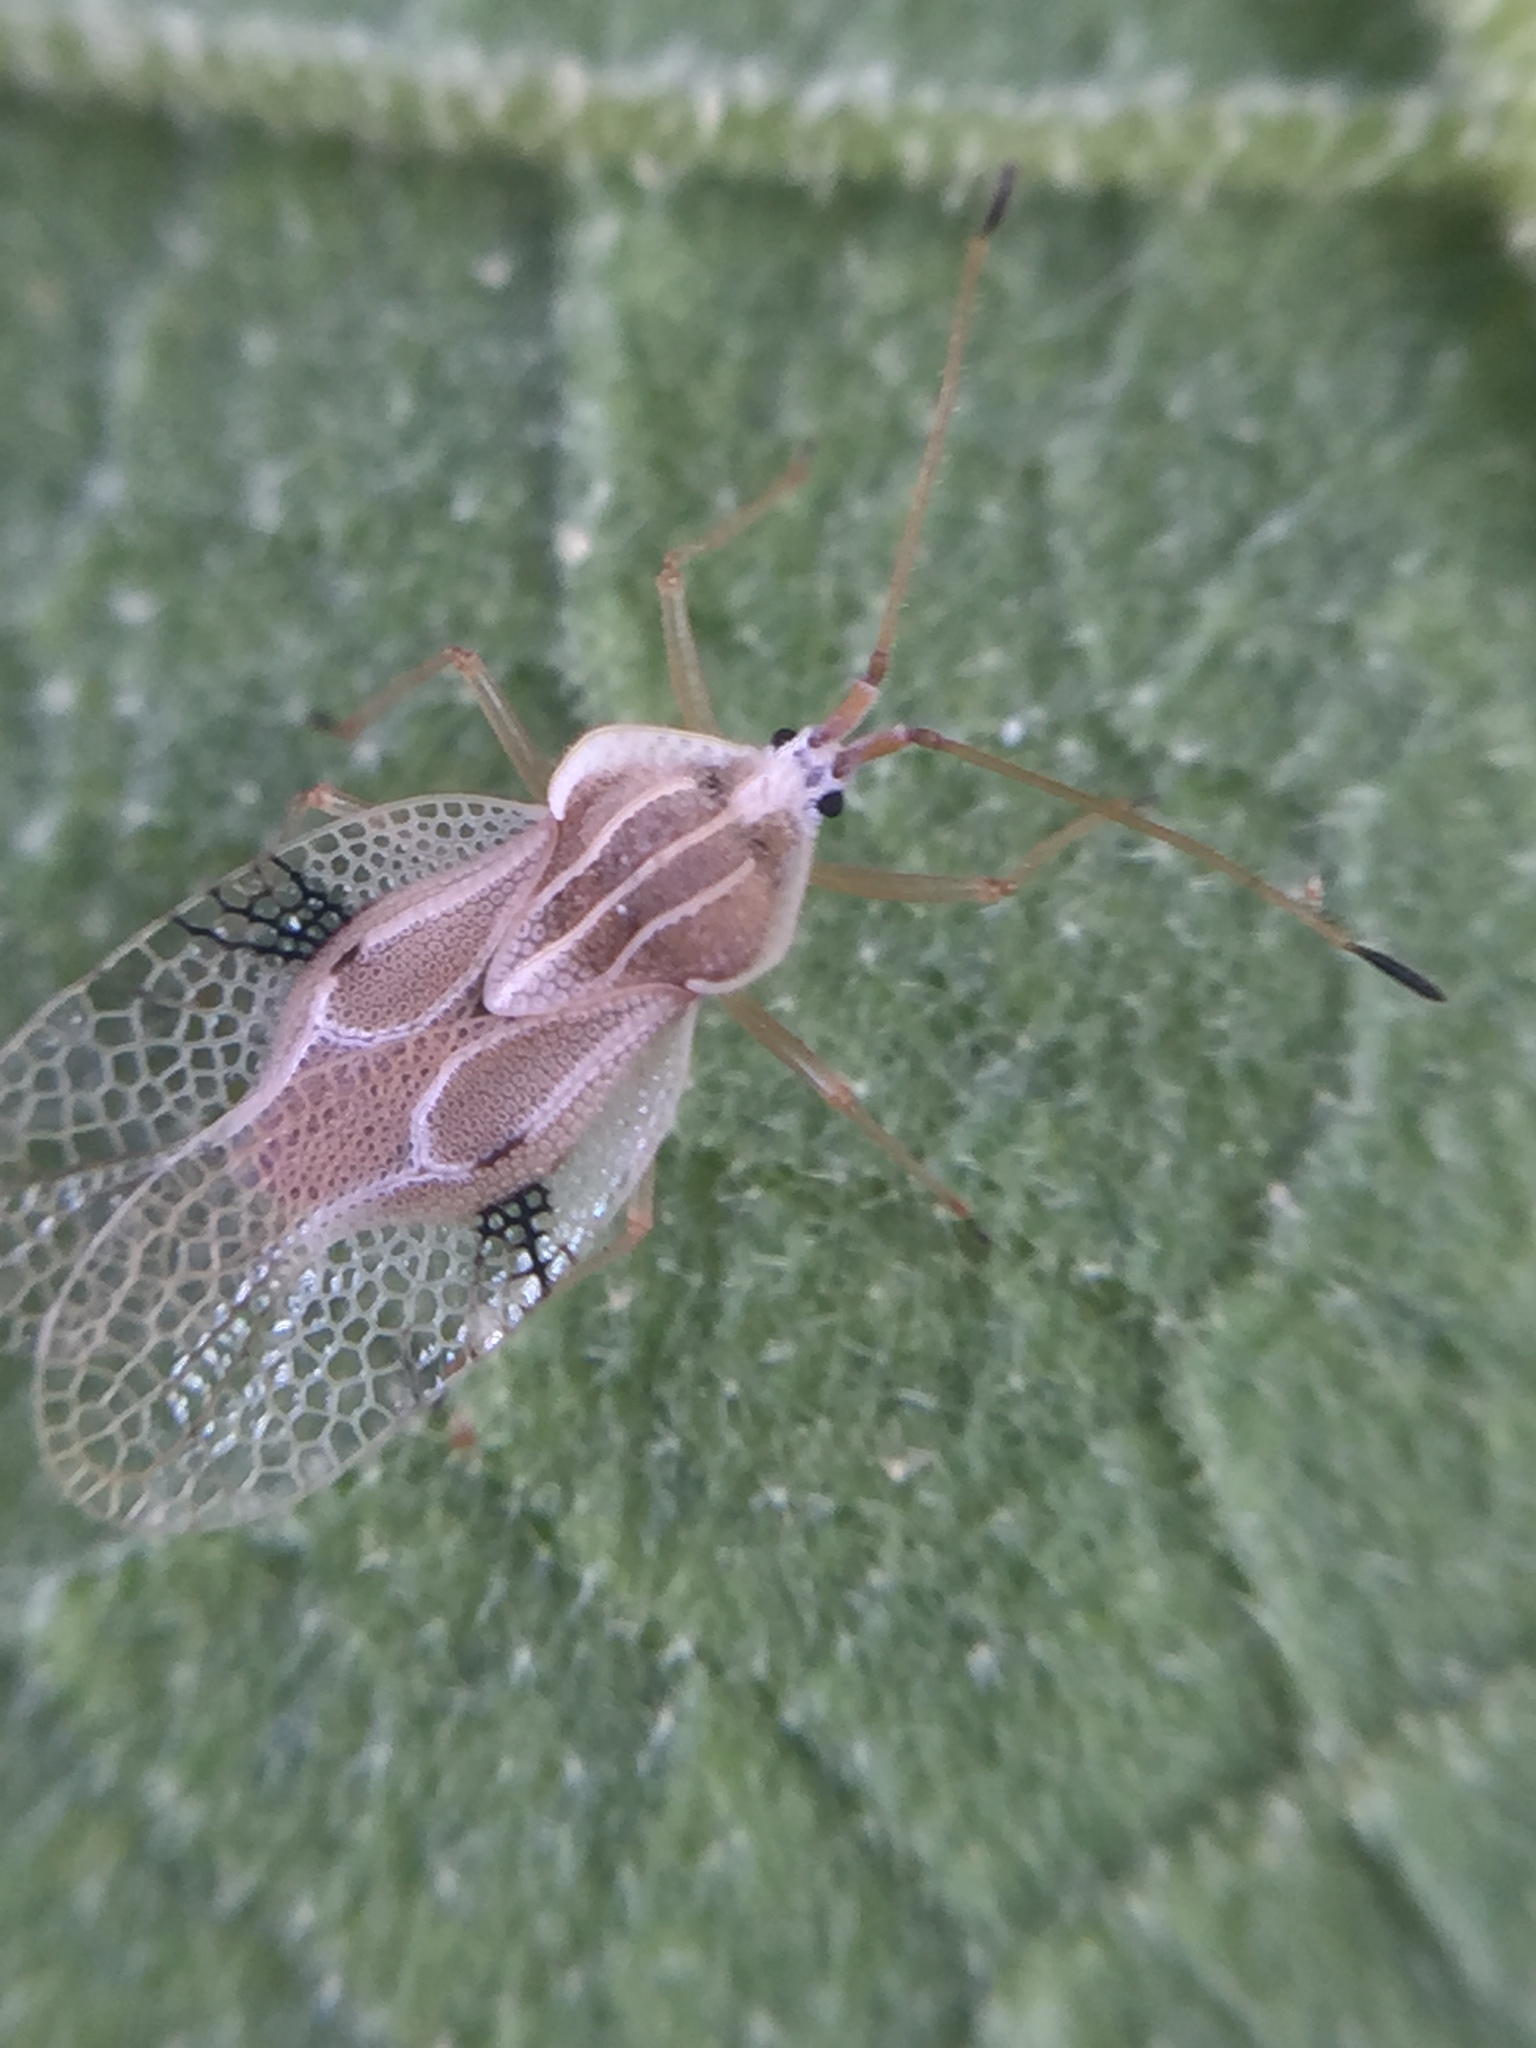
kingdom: Animalia
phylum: Arthropoda
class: Insecta
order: Hemiptera
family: Tingidae
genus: Gargaphia
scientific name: Gargaphia decoris
